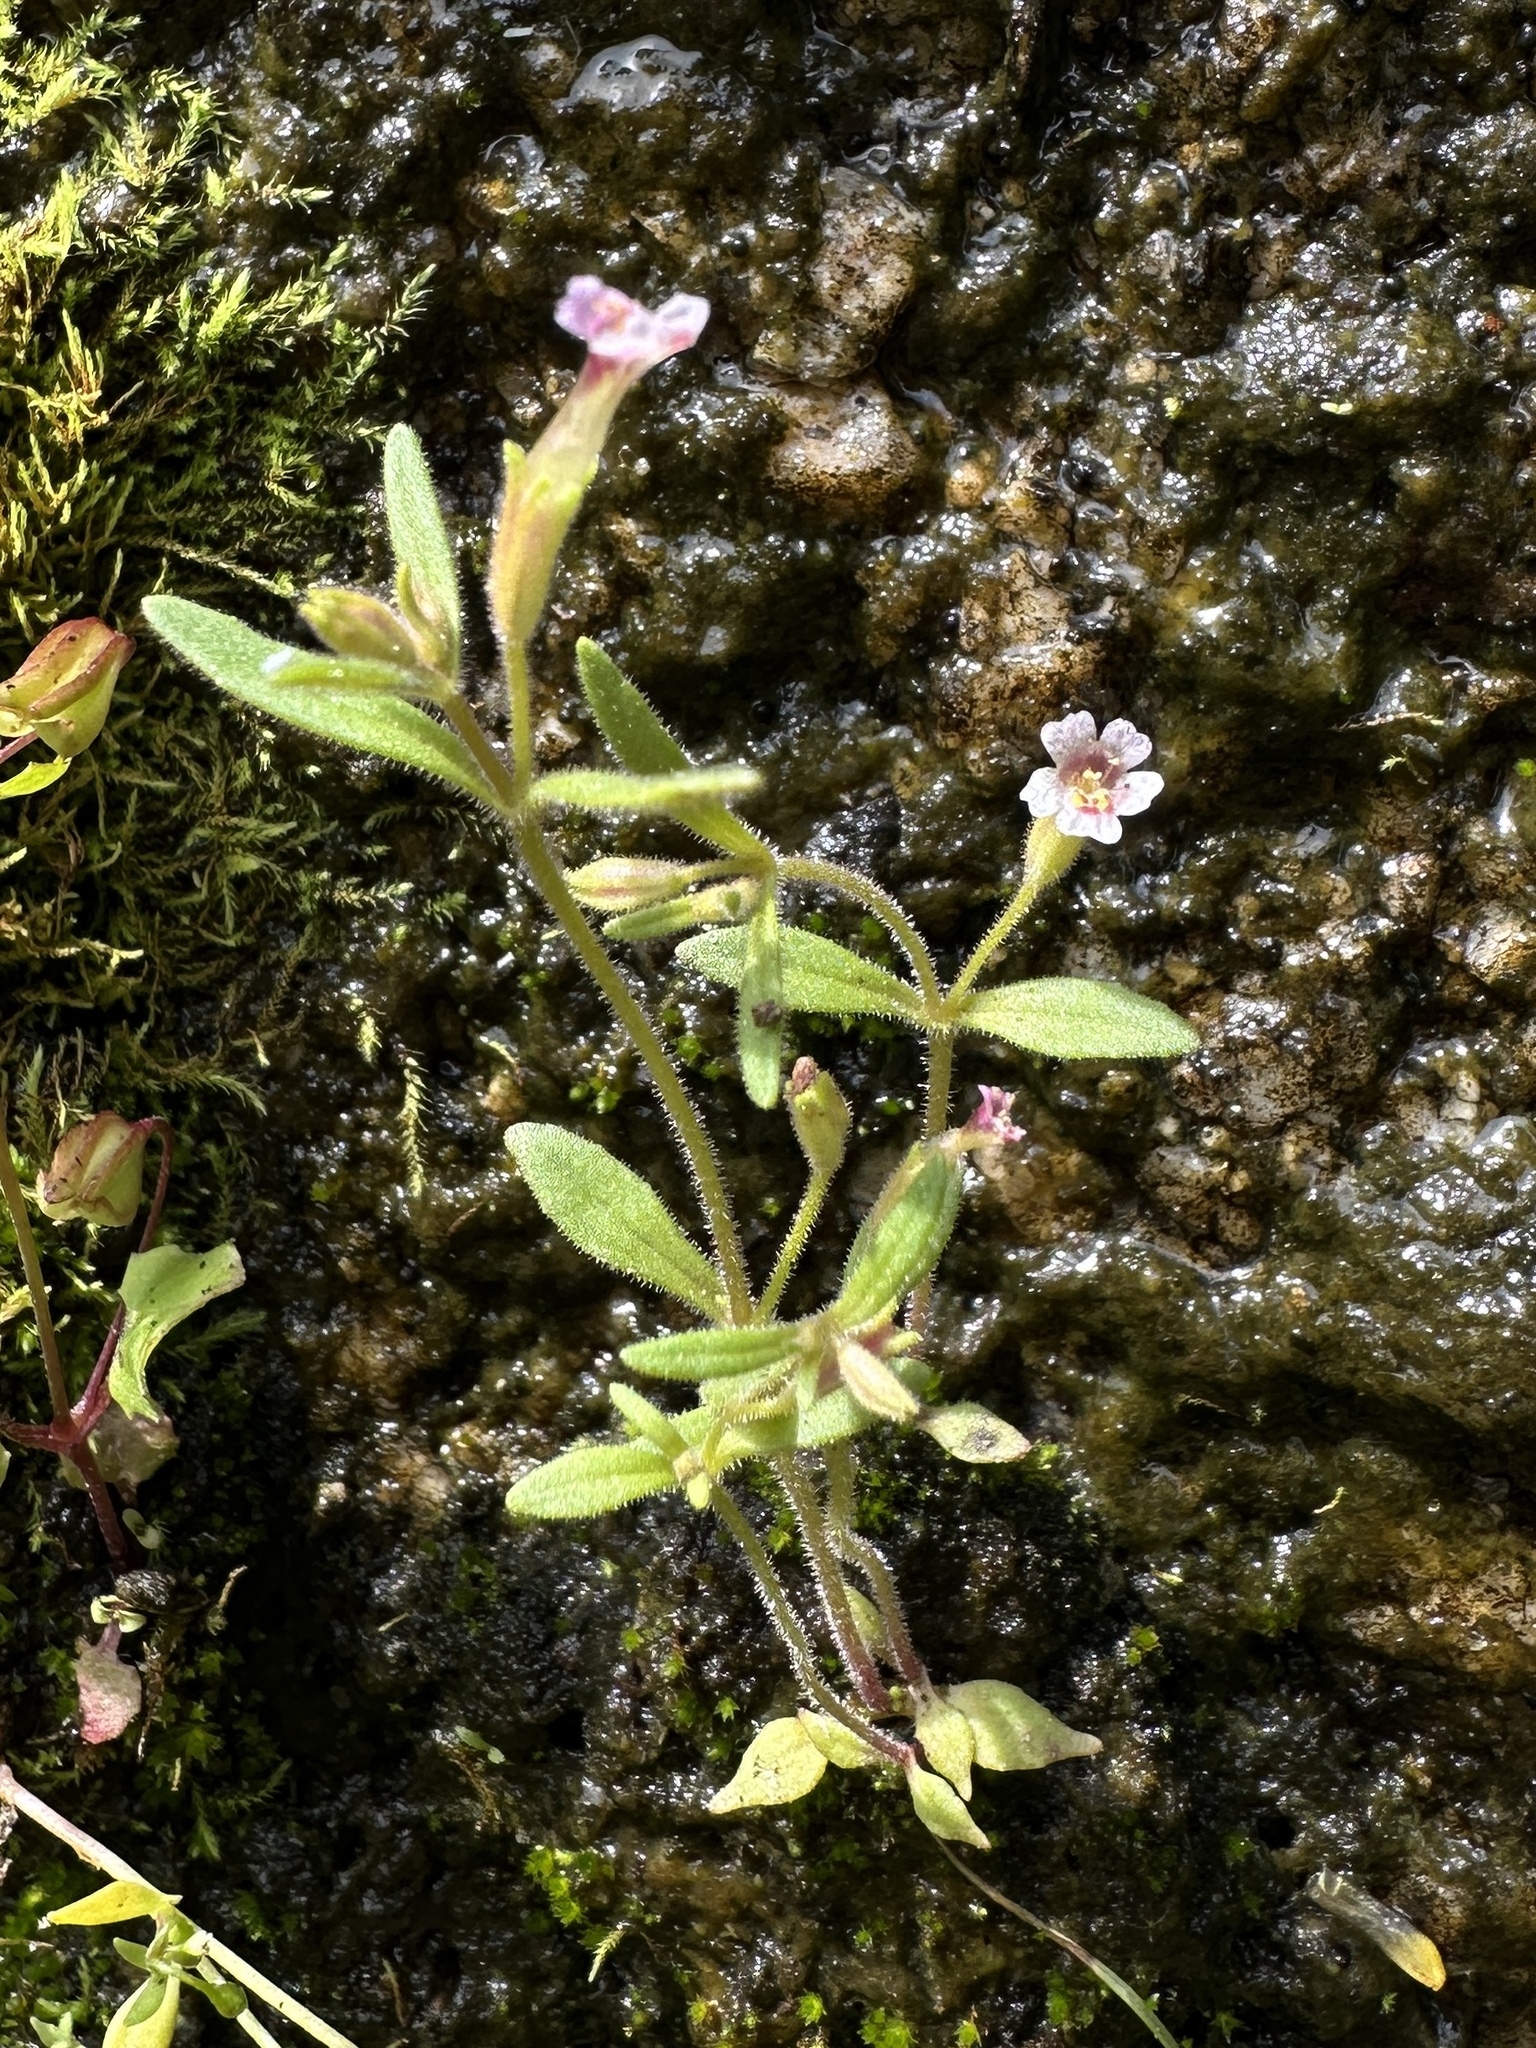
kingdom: Plantae
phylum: Tracheophyta
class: Magnoliopsida
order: Lamiales
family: Phrymaceae
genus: Erythranthe
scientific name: Erythranthe breweri
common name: Brewer's monkeyflower
